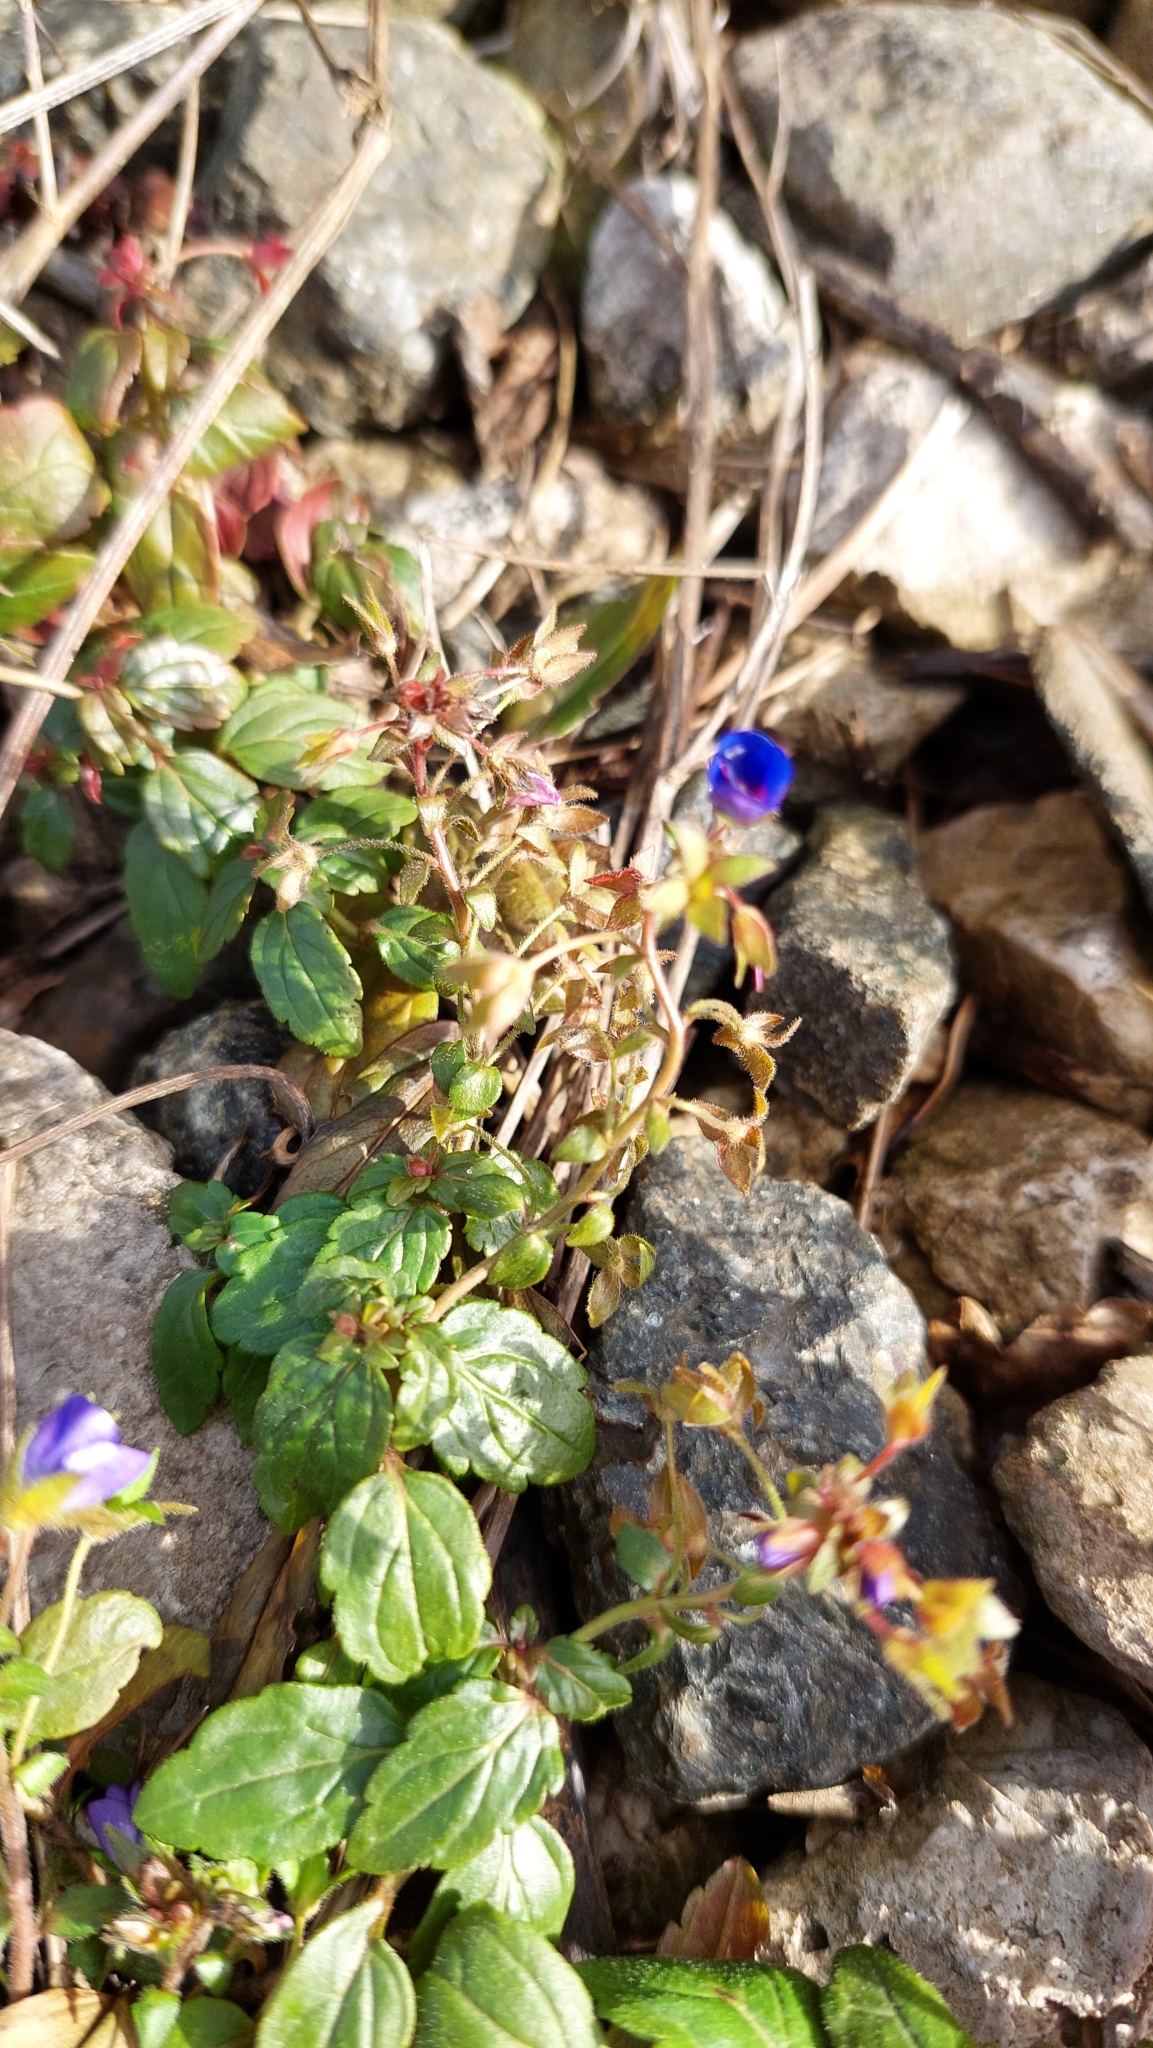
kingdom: Plantae
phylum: Tracheophyta
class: Magnoliopsida
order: Lamiales
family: Plantaginaceae
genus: Veronica
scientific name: Veronica
